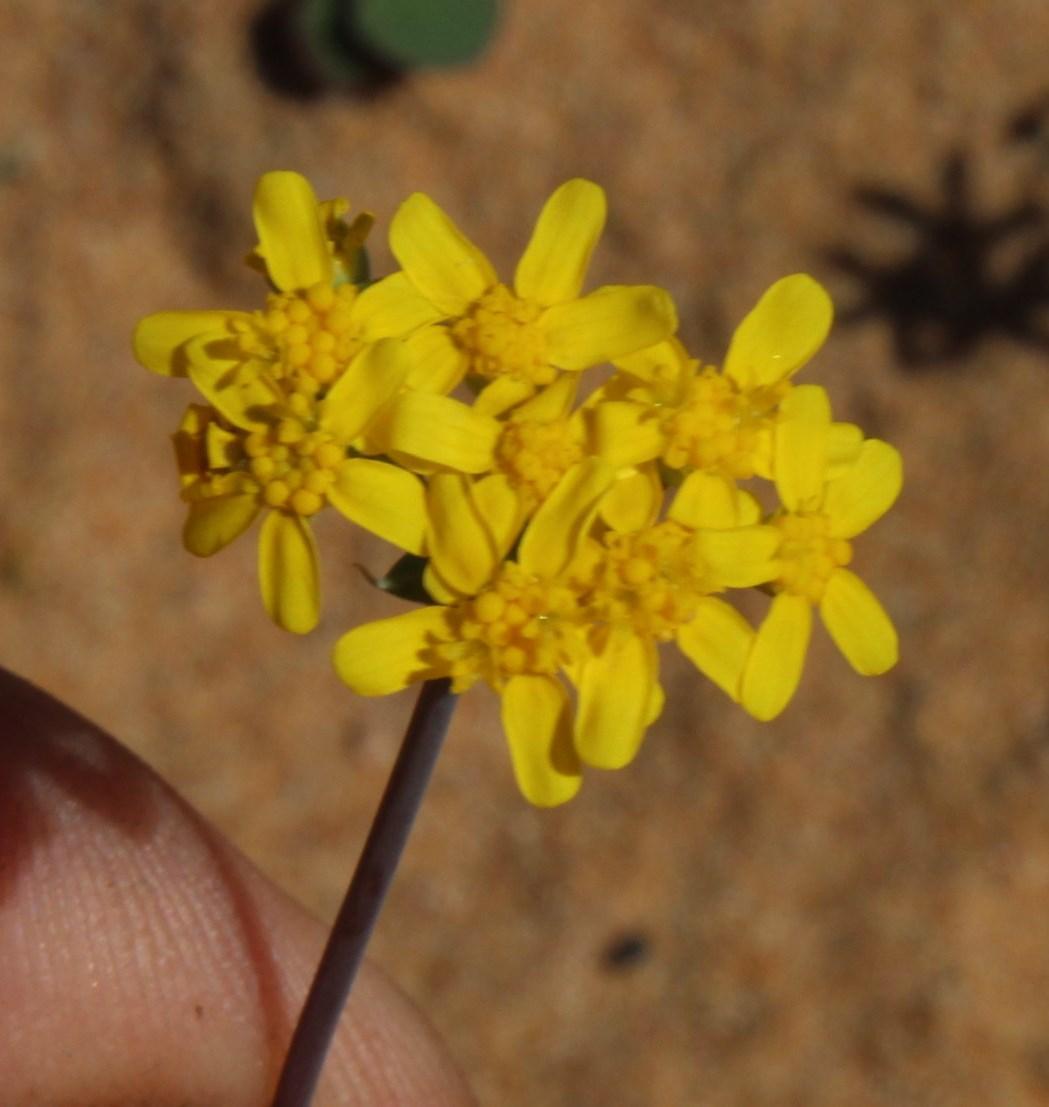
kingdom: Plantae
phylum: Tracheophyta
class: Magnoliopsida
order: Asterales
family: Asteraceae
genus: Gymnodiscus
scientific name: Gymnodiscus capillaris
